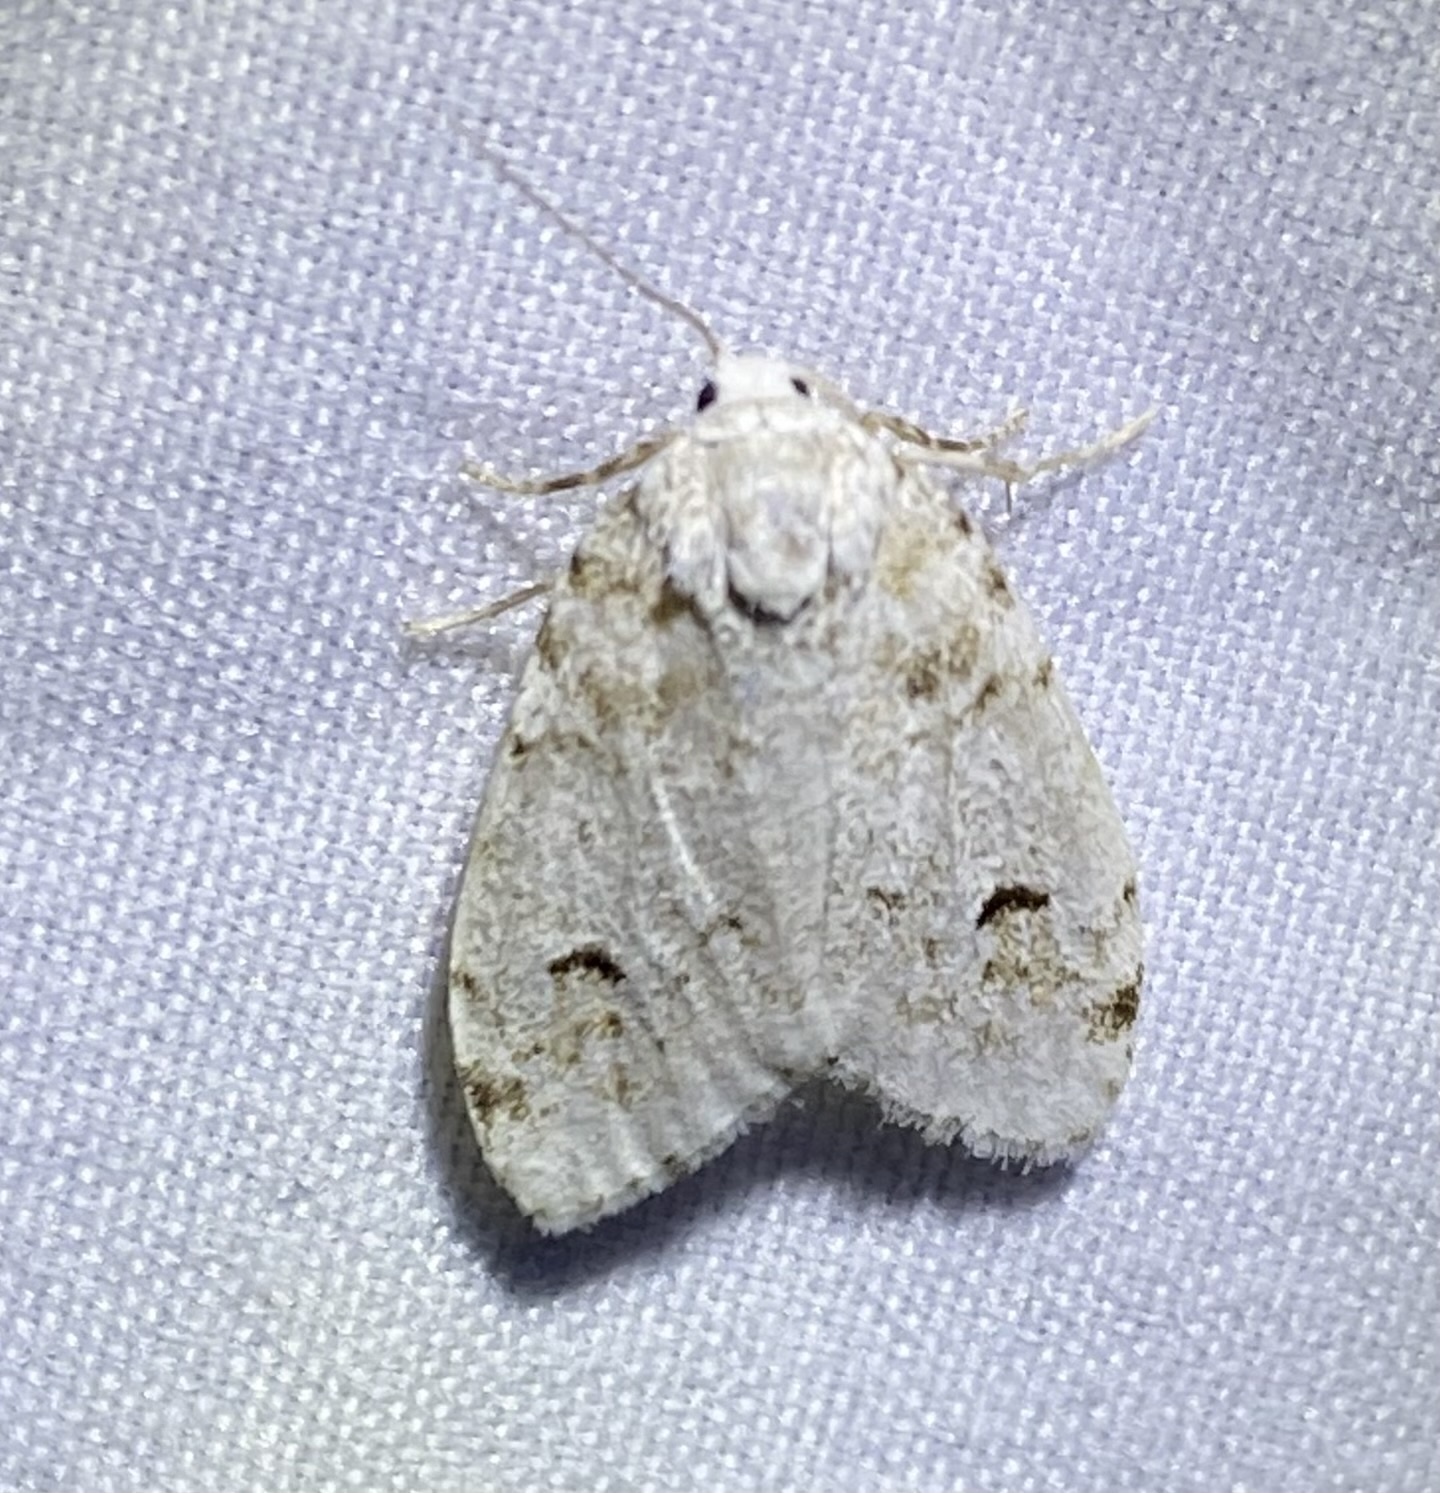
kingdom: Animalia
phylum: Arthropoda
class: Insecta
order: Lepidoptera
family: Erebidae
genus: Clemensia
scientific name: Clemensia albata
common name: Little white lichen moth
